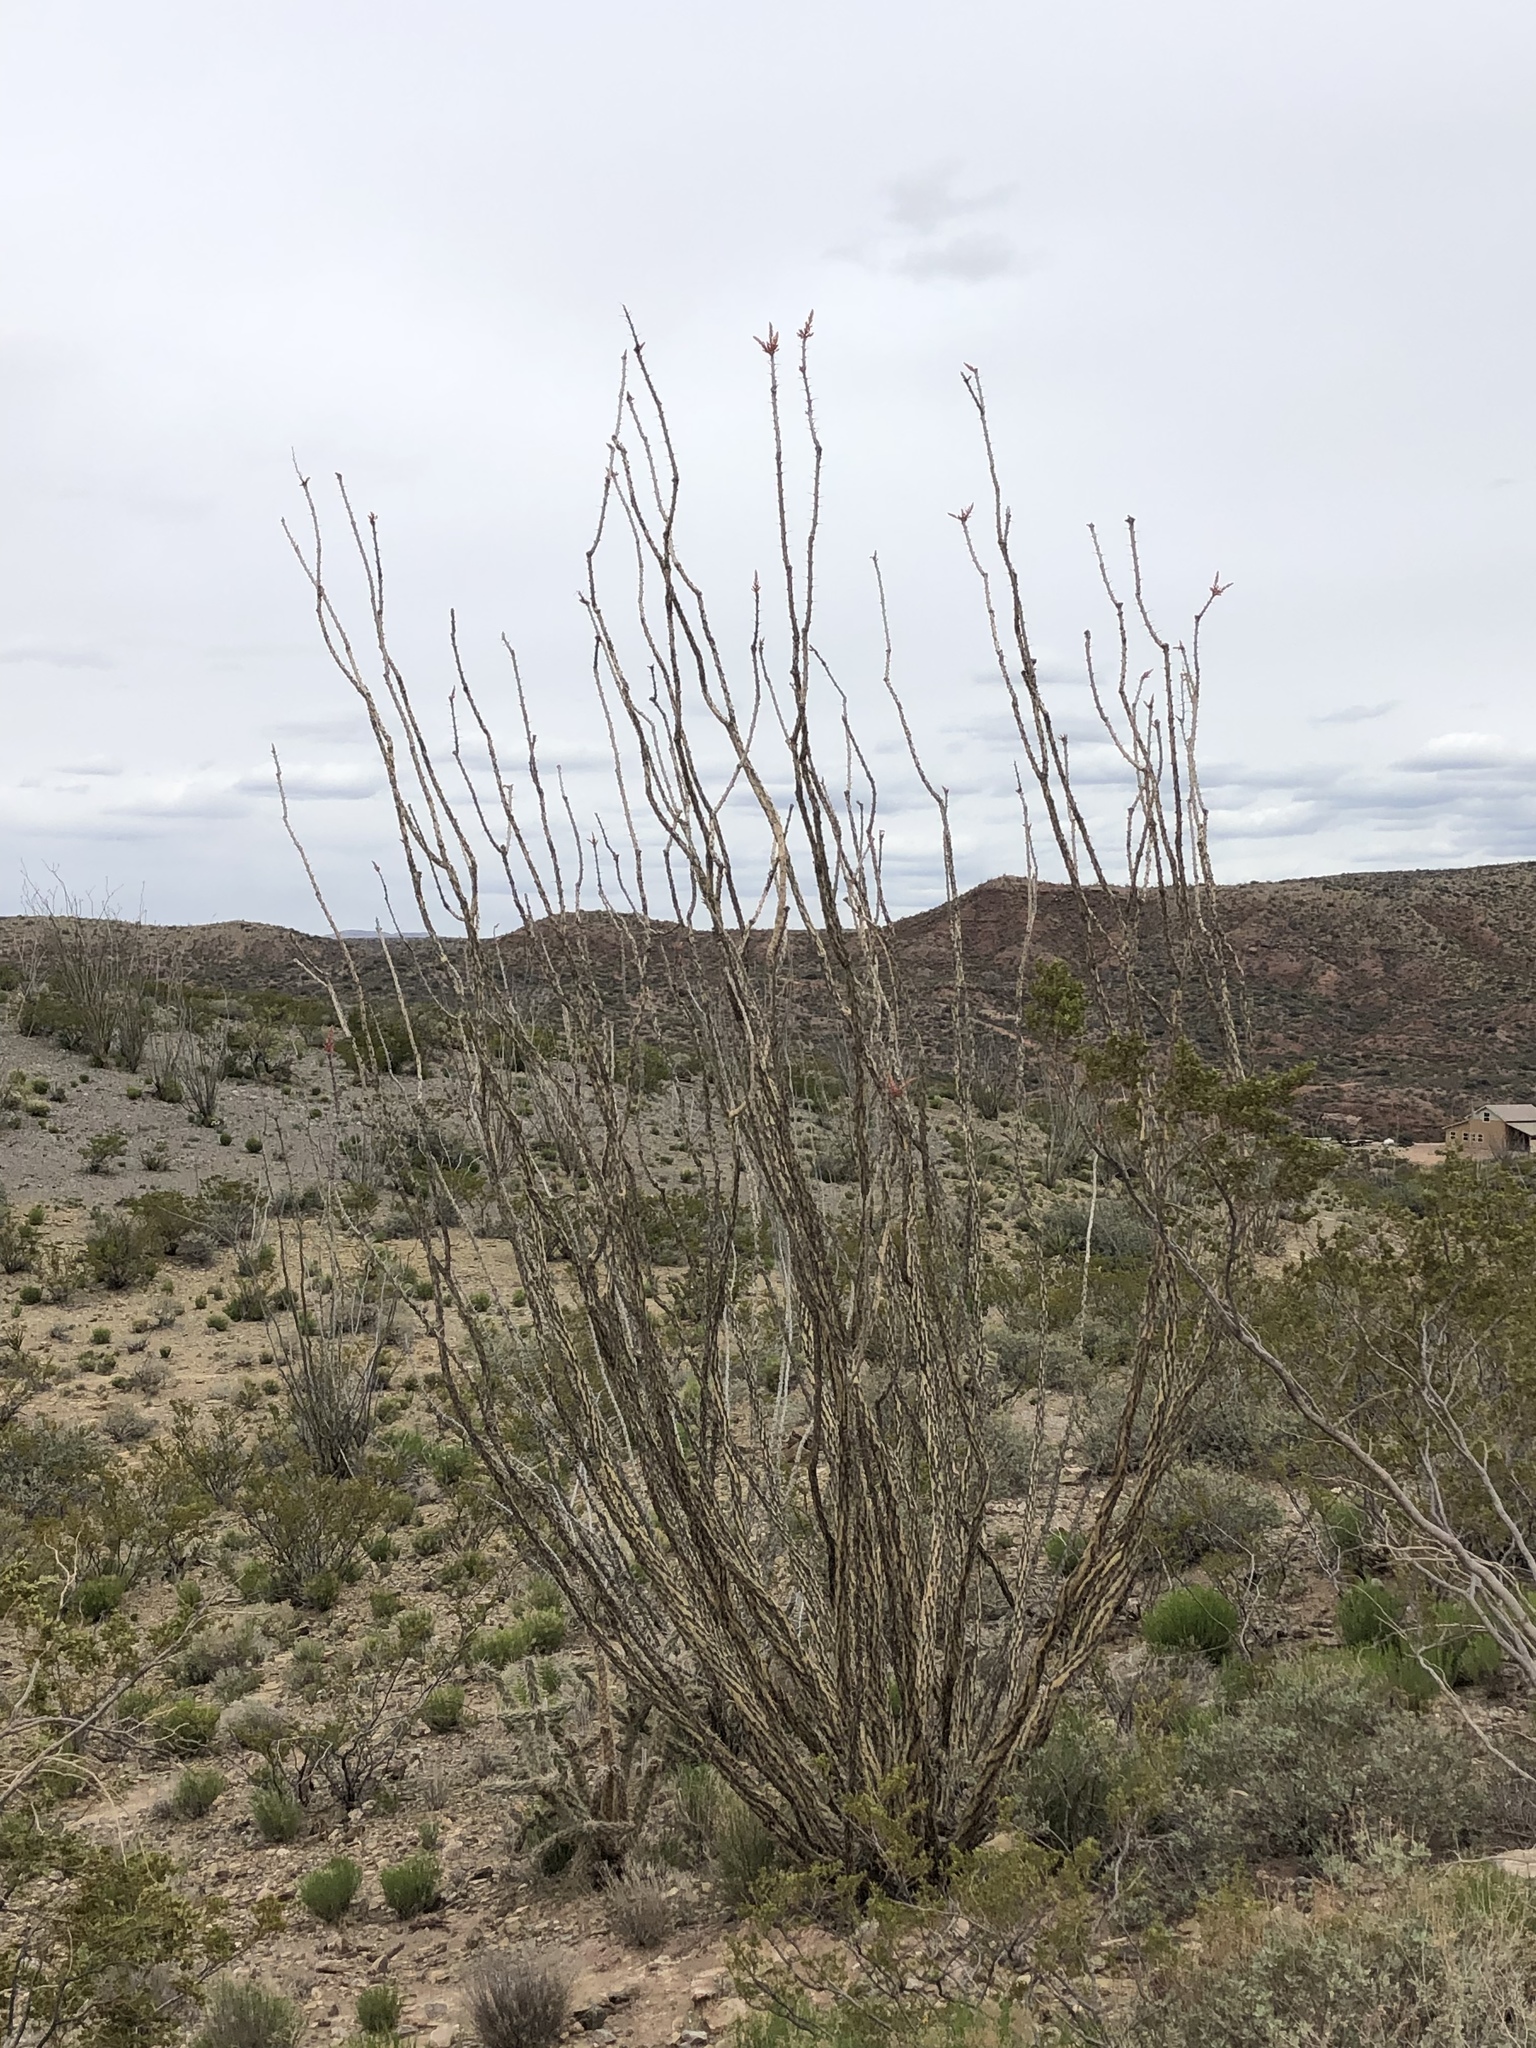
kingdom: Plantae
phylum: Tracheophyta
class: Magnoliopsida
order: Ericales
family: Fouquieriaceae
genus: Fouquieria
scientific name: Fouquieria splendens
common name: Vine-cactus
